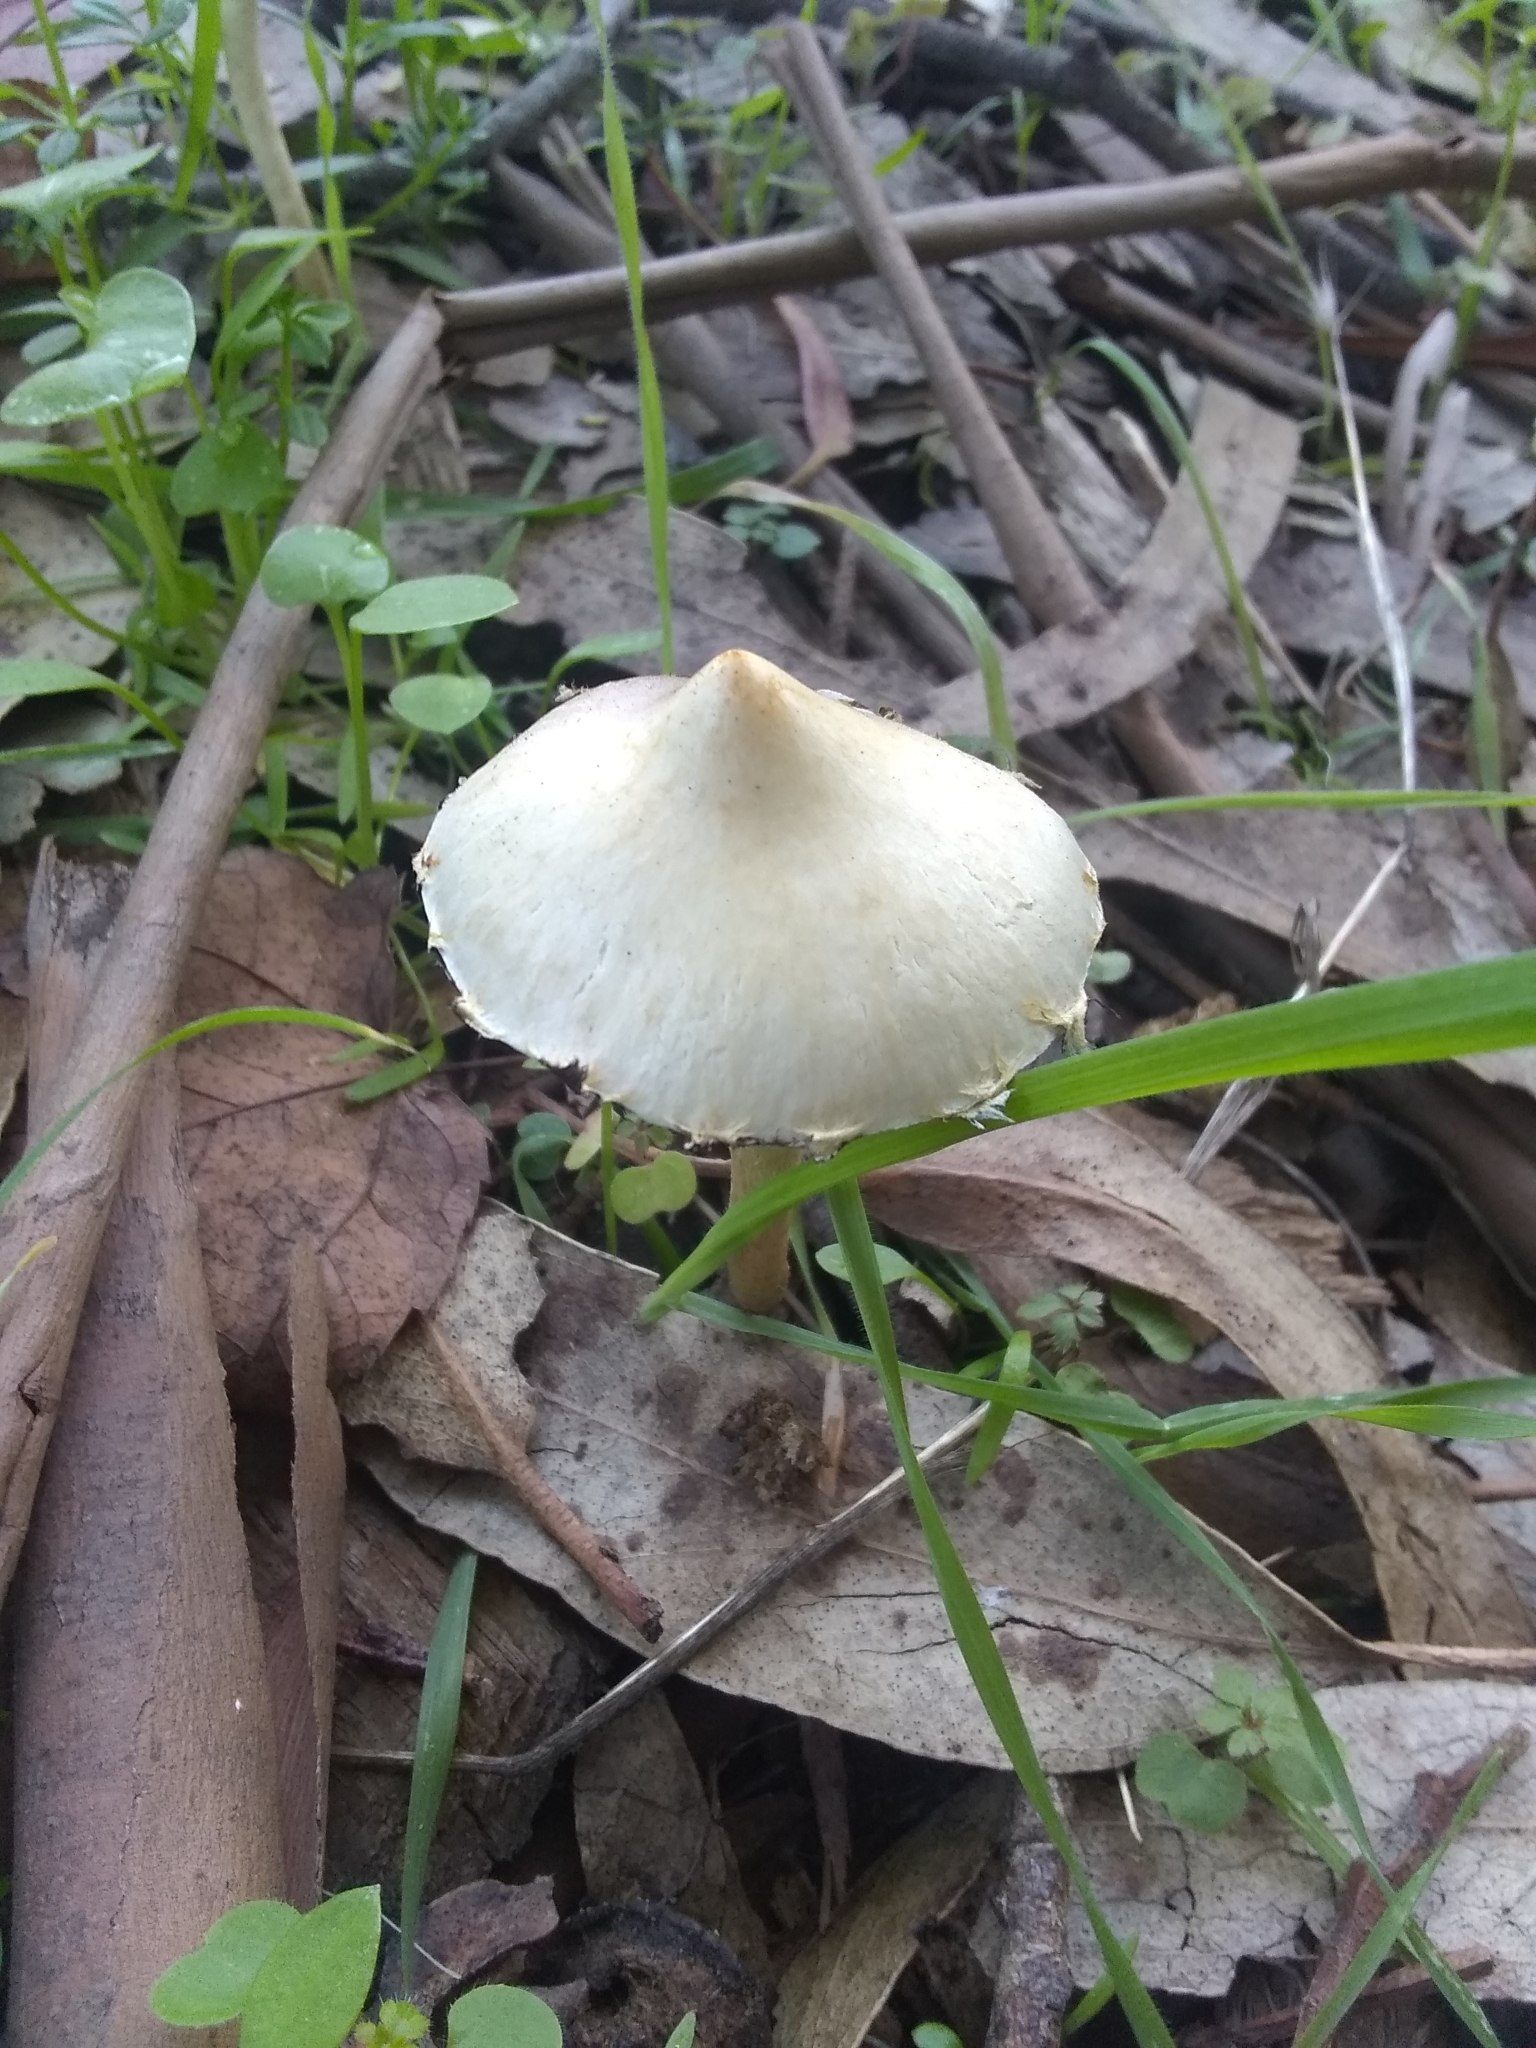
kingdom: Fungi
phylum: Basidiomycota
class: Agaricomycetes
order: Agaricales
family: Strophariaceae
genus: Leratiomyces
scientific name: Leratiomyces percevalii
